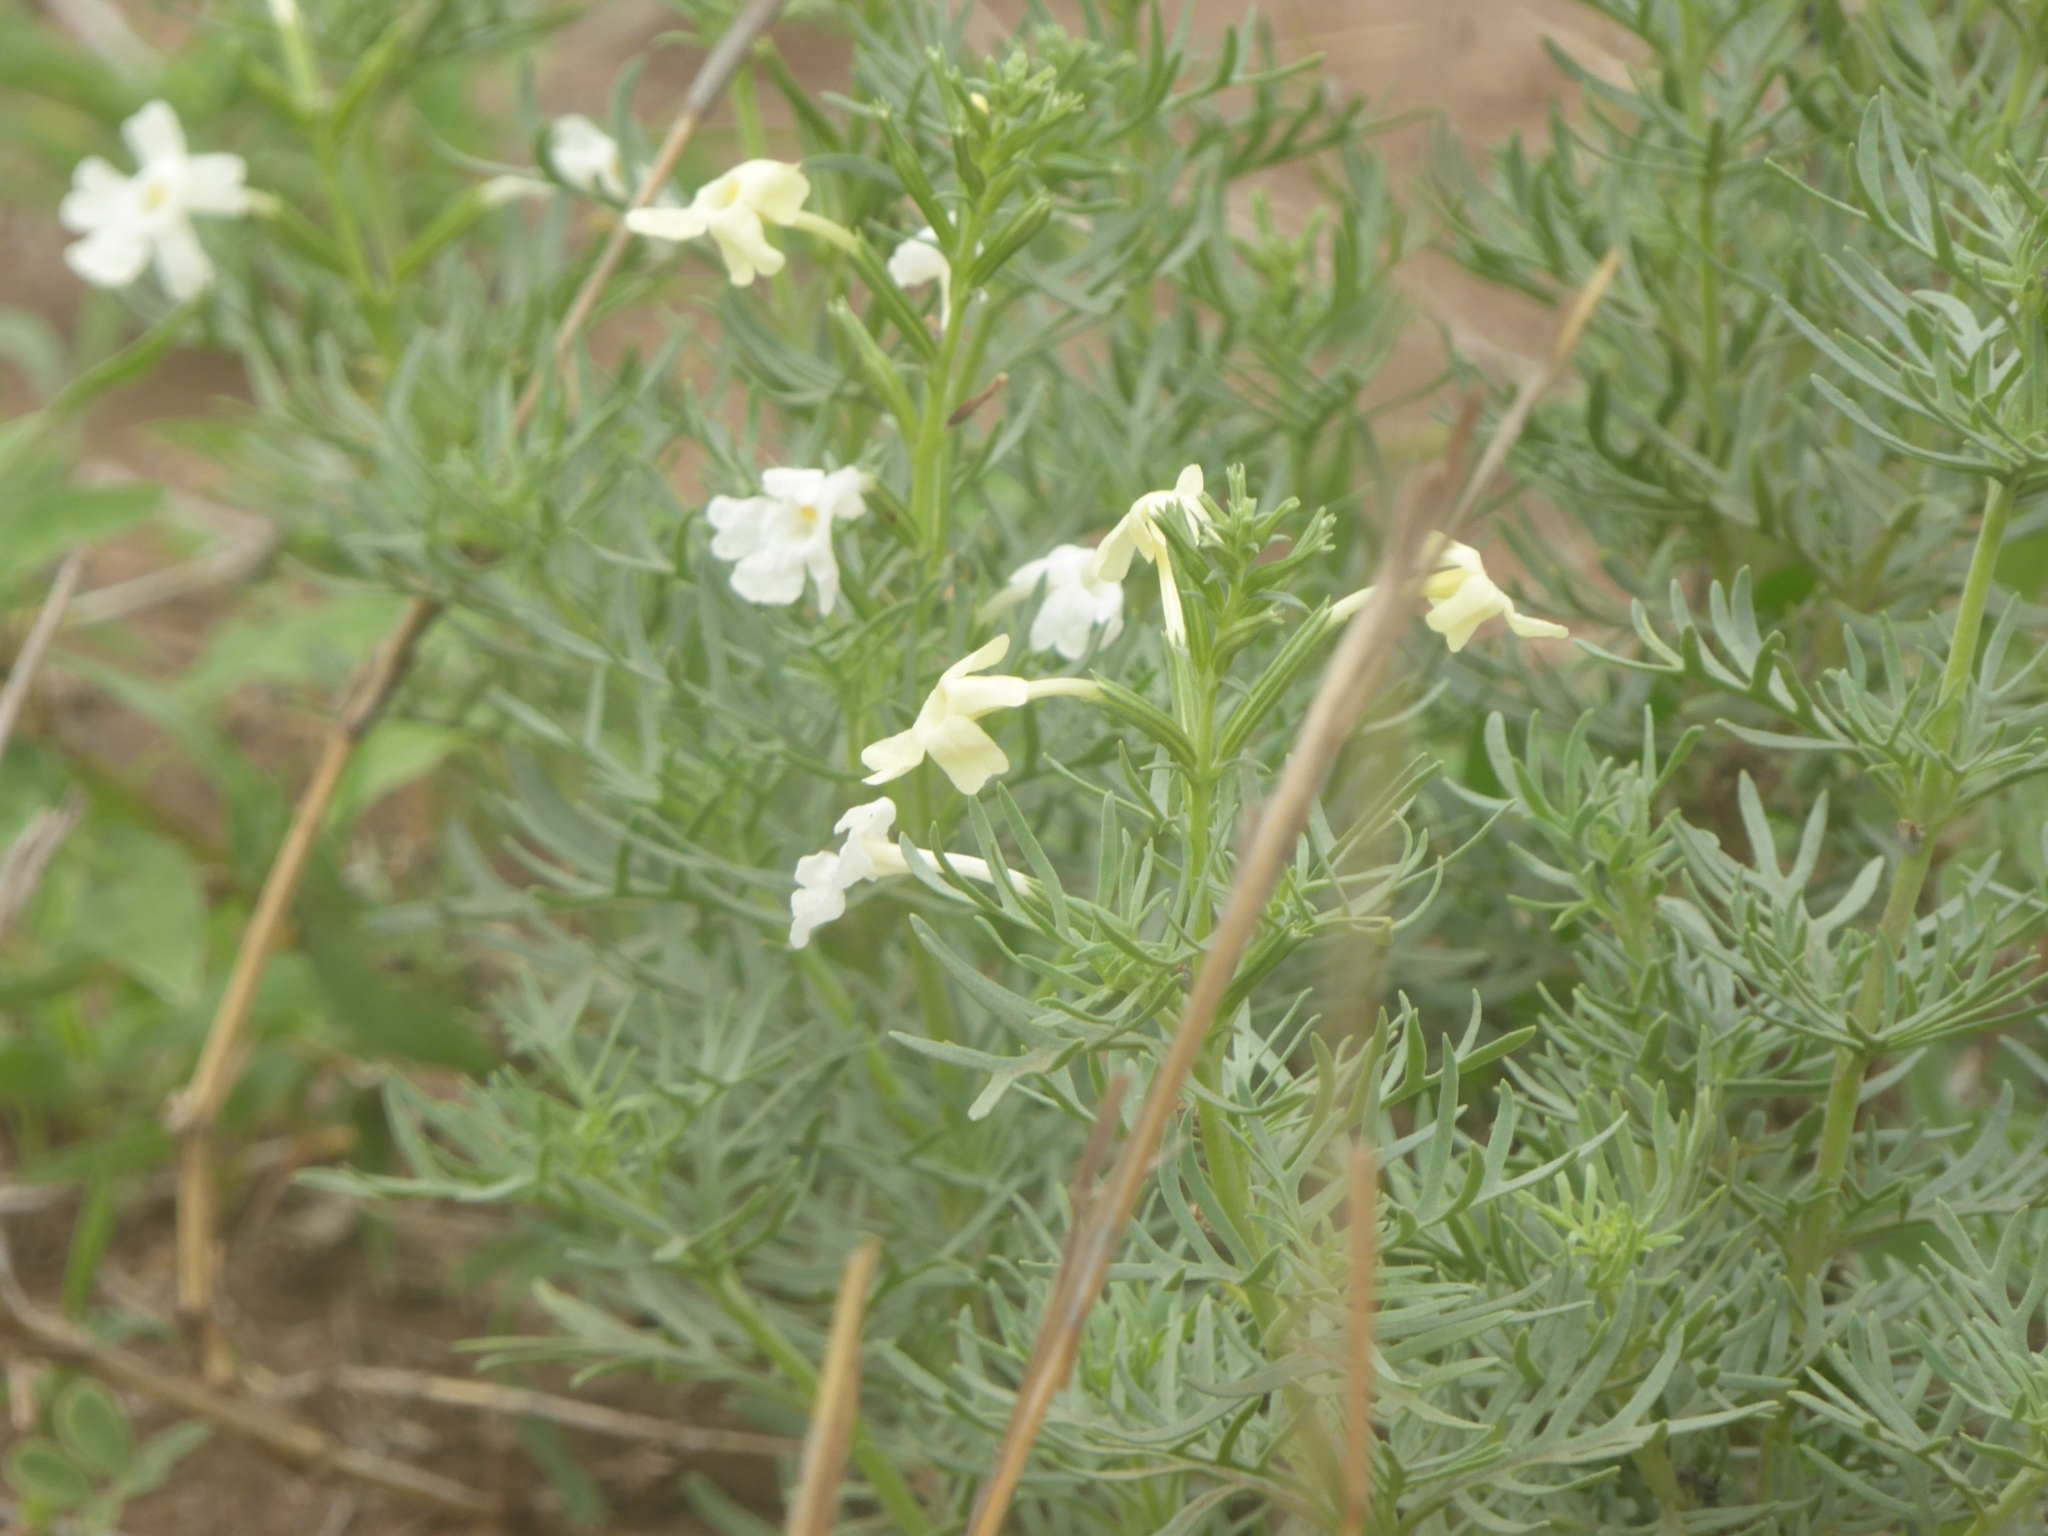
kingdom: Plantae
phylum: Tracheophyta
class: Magnoliopsida
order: Lamiales
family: Verbenaceae
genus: Chascanum
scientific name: Chascanum pinnatifidum
